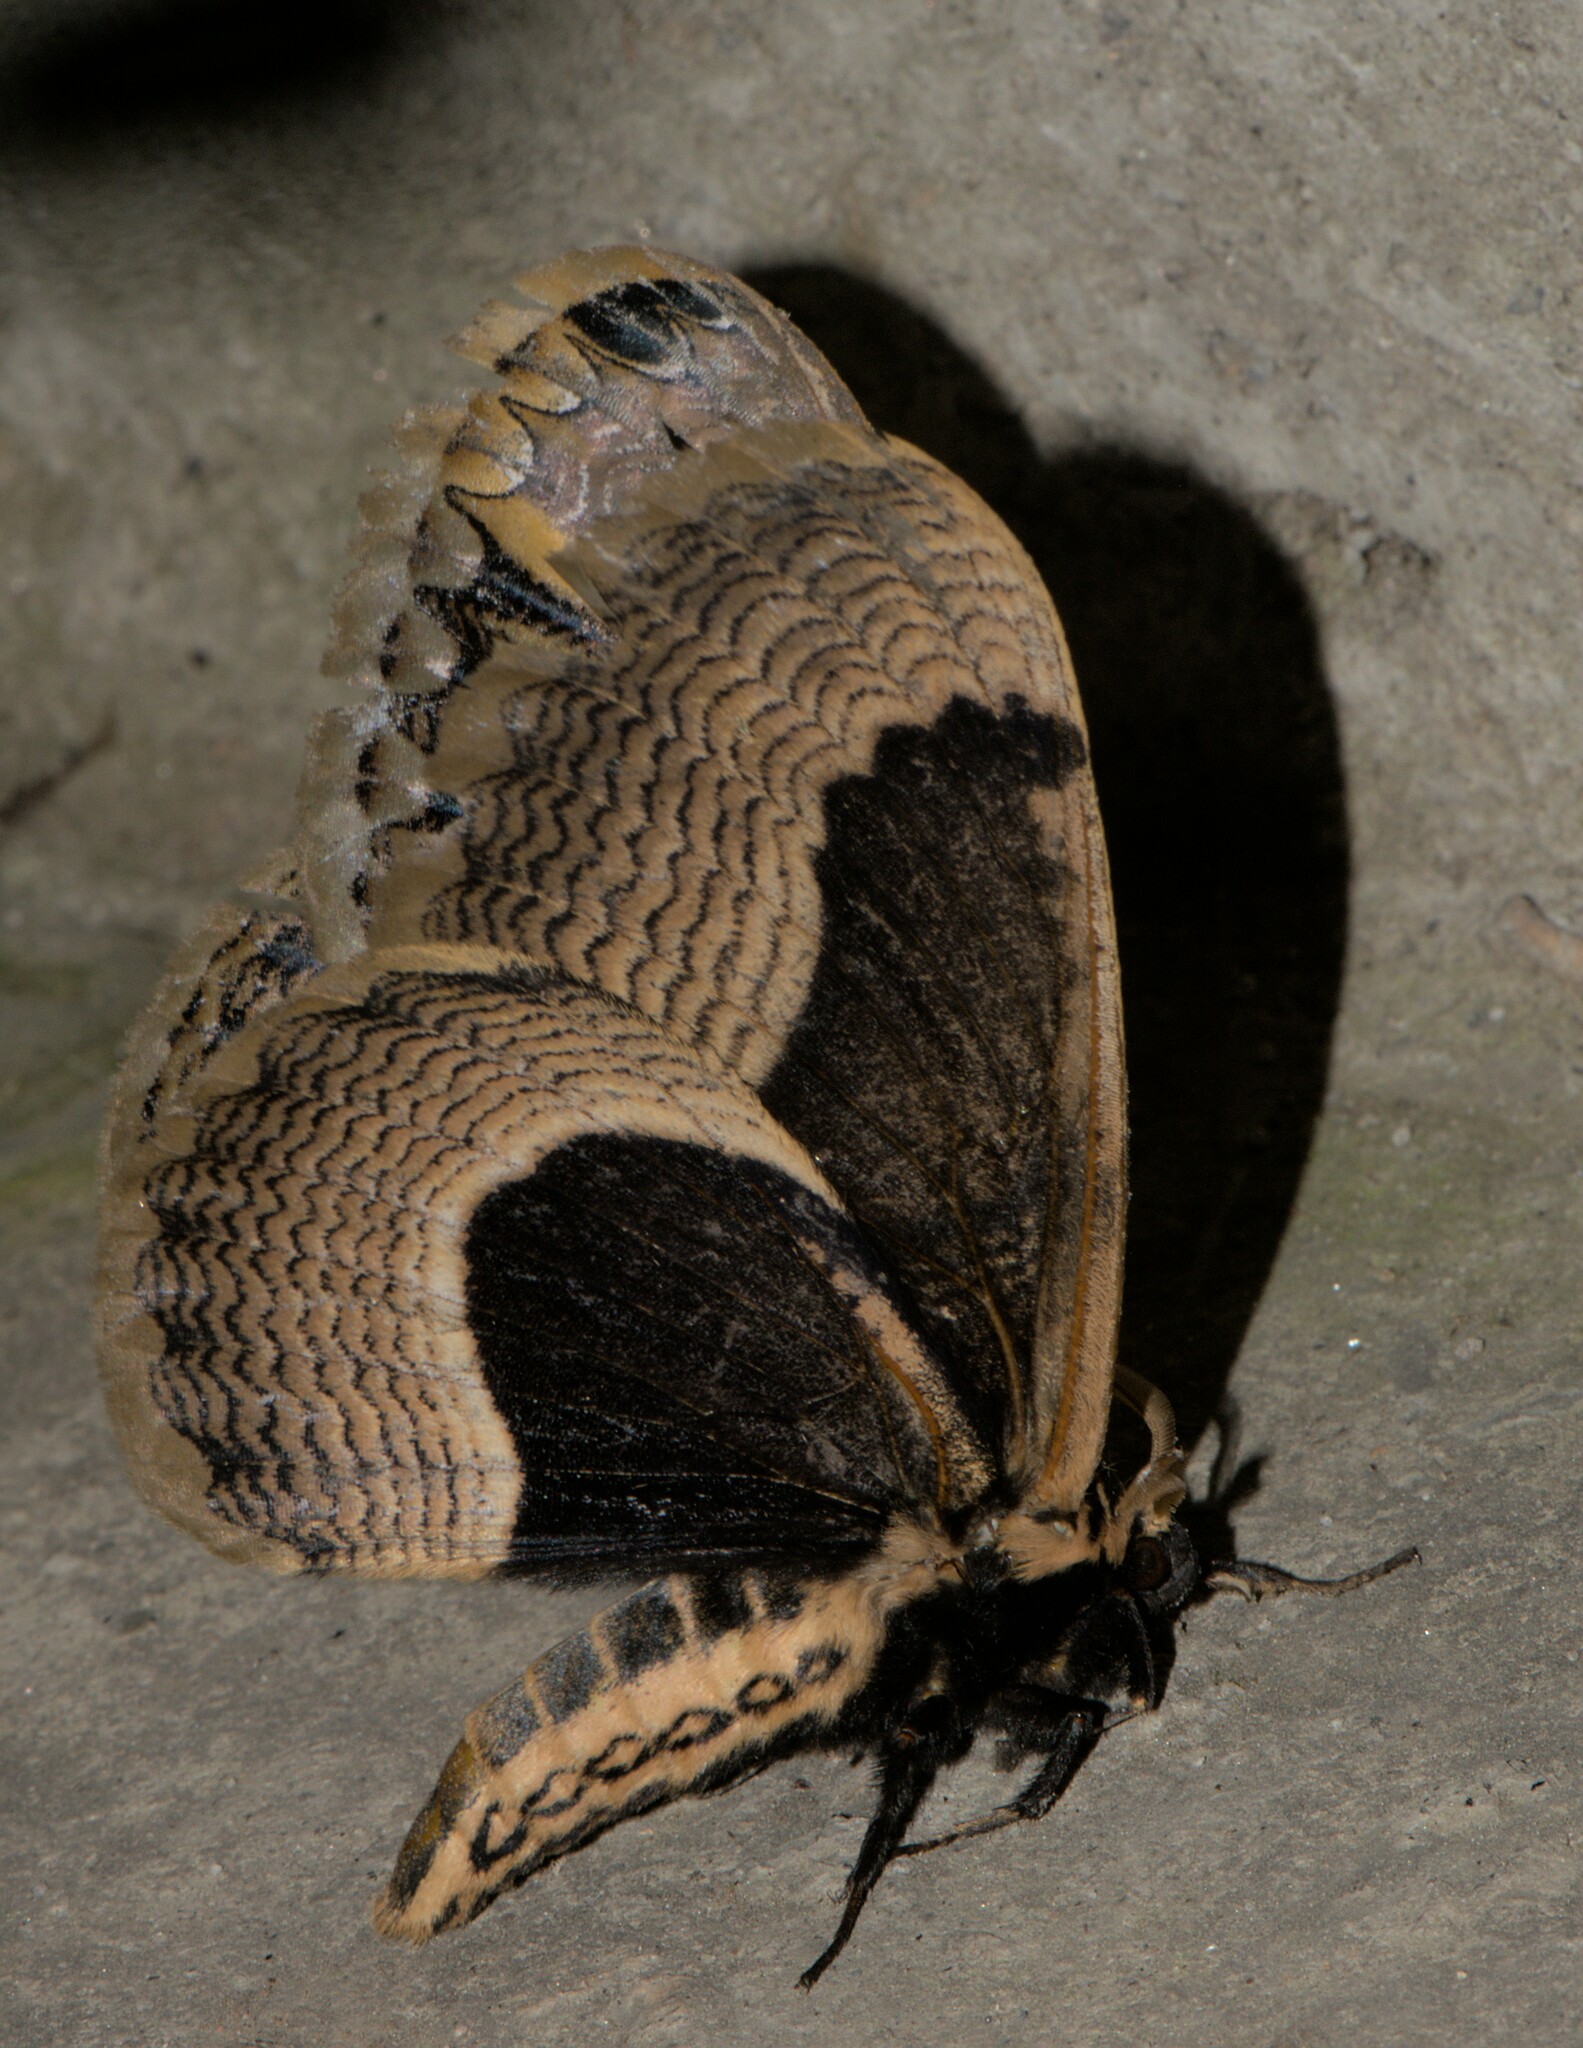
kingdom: Animalia
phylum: Arthropoda
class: Insecta
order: Lepidoptera
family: Brahmaeidae
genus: Brahmaea
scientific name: Brahmaea wallichii
